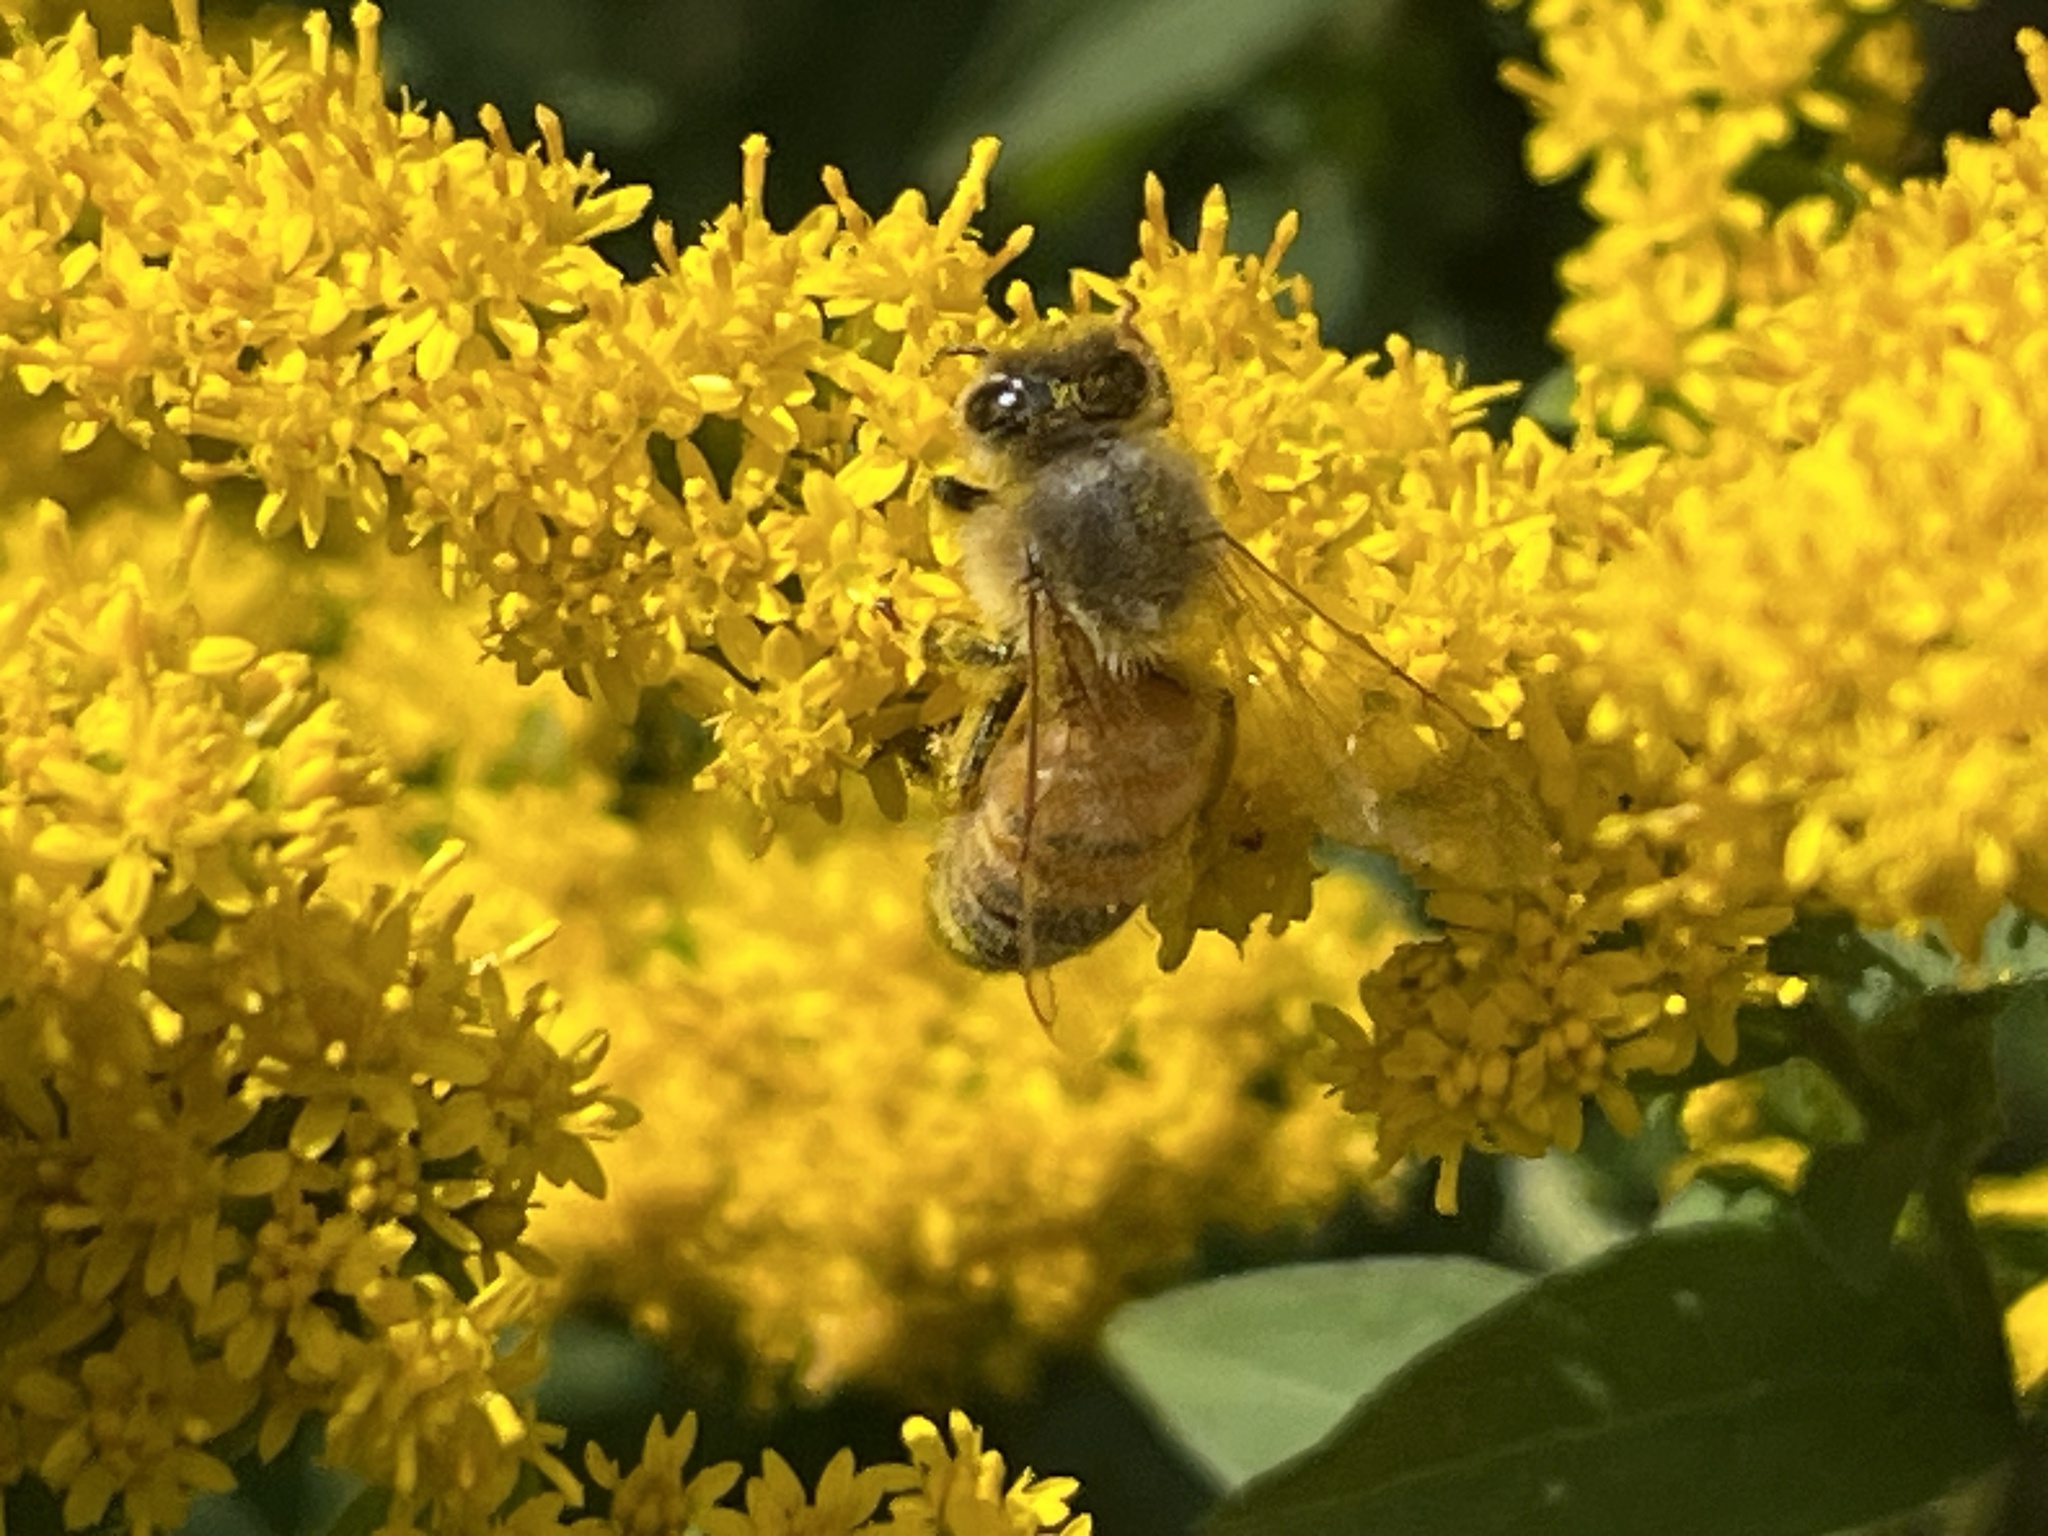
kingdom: Animalia
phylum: Arthropoda
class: Insecta
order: Hymenoptera
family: Apidae
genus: Apis
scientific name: Apis mellifera
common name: Honey bee
